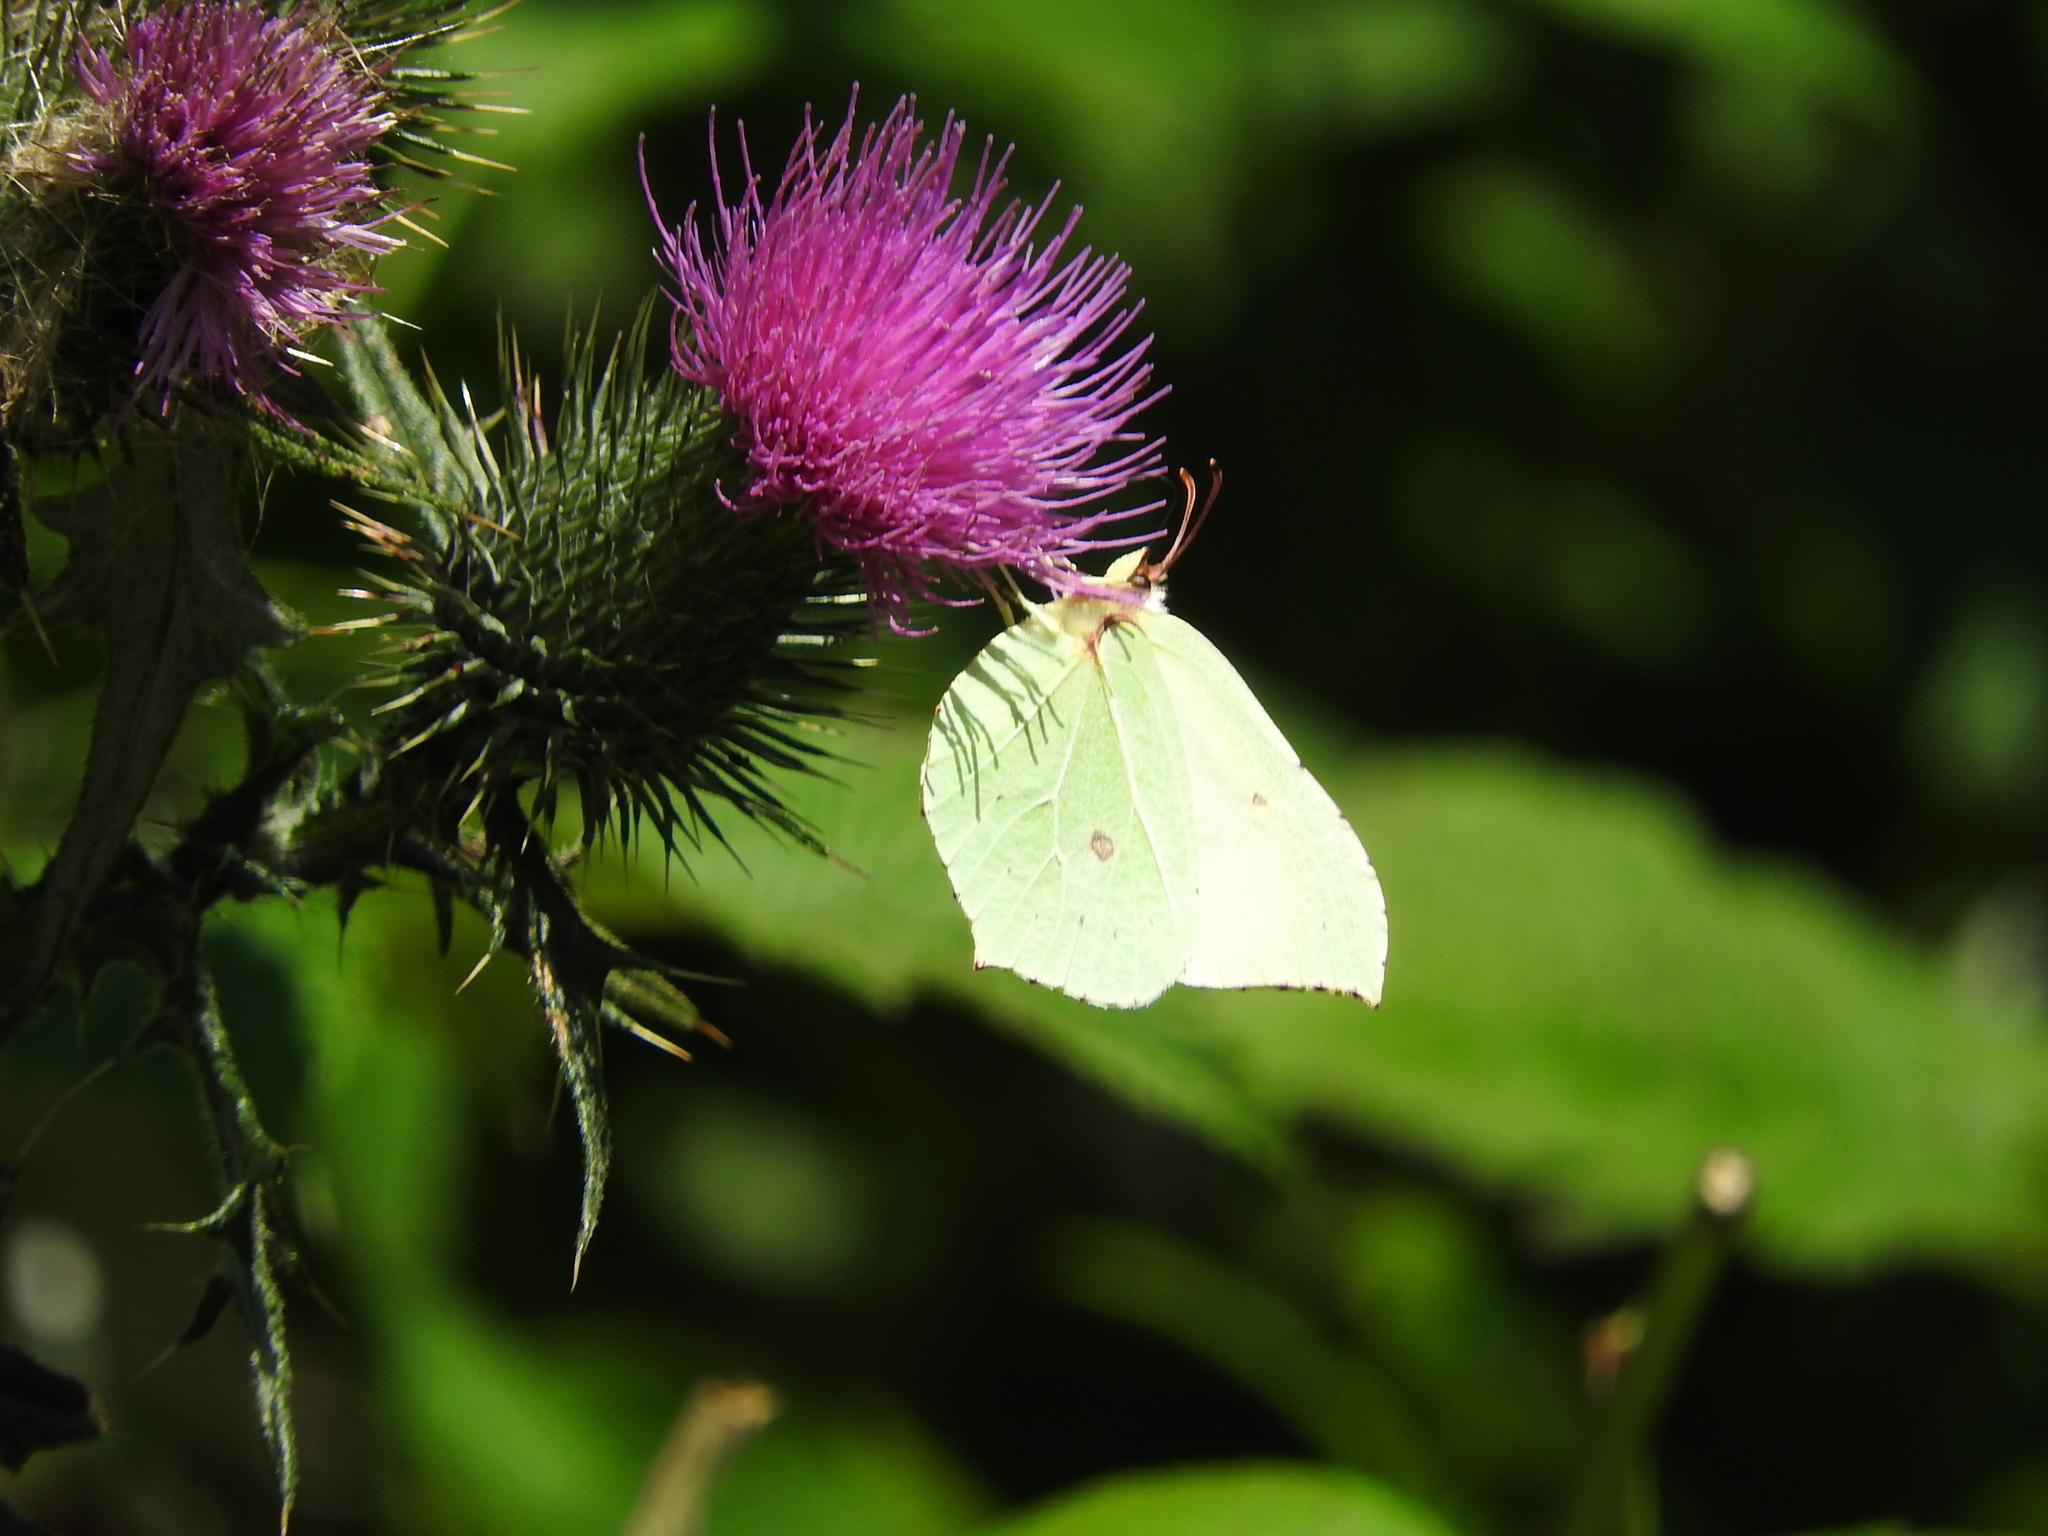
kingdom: Animalia
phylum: Arthropoda
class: Insecta
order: Lepidoptera
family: Pieridae
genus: Gonepteryx
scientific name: Gonepteryx rhamni
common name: Brimstone
